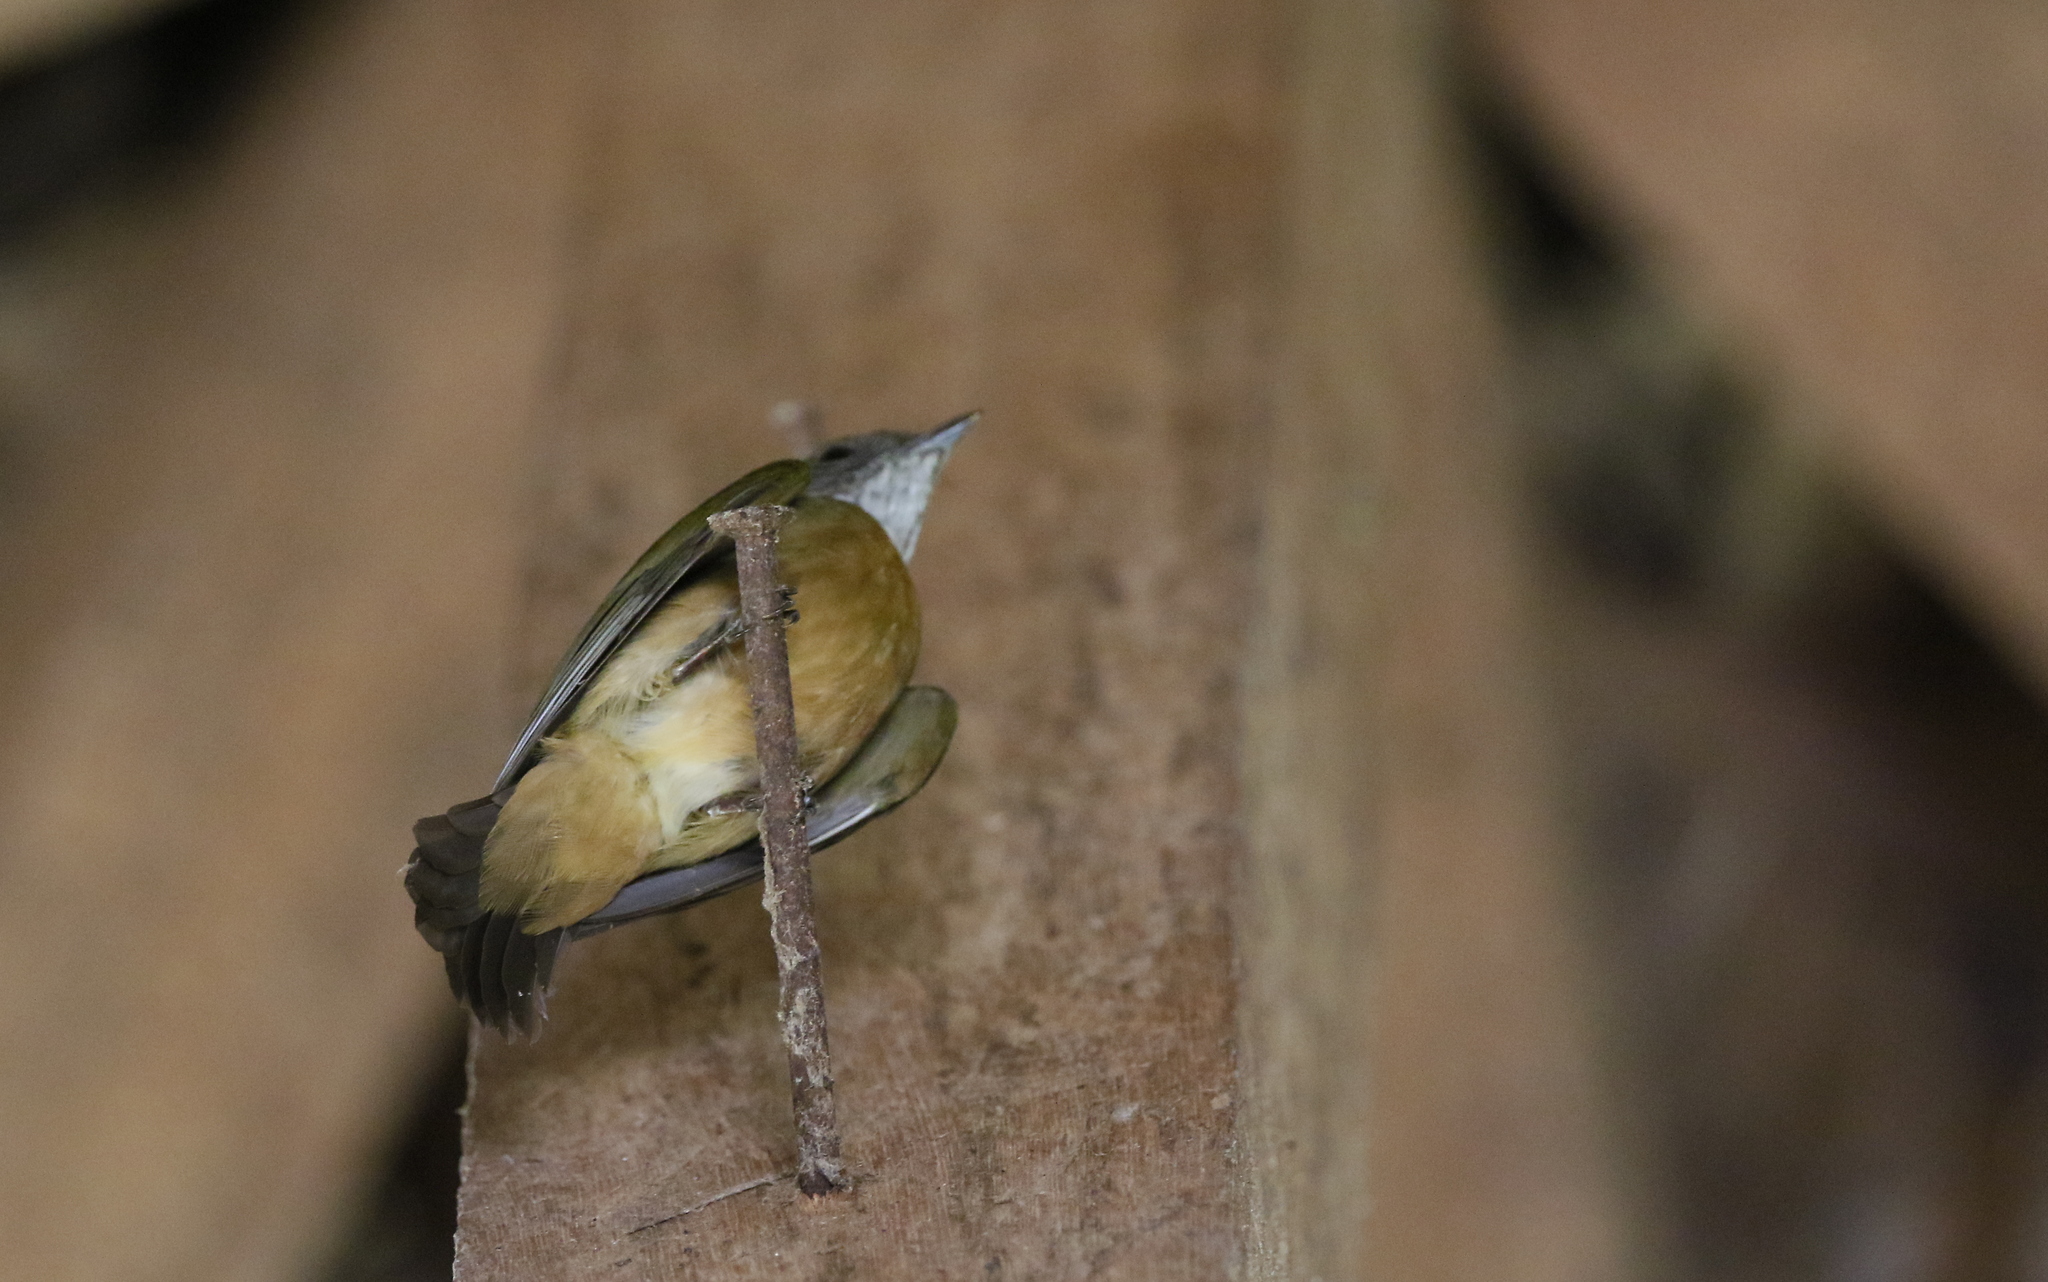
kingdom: Animalia
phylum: Chordata
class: Aves
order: Passeriformes
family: Pipridae
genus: Heterocercus
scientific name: Heterocercus aurantiivertex
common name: Orange-crested manakin
